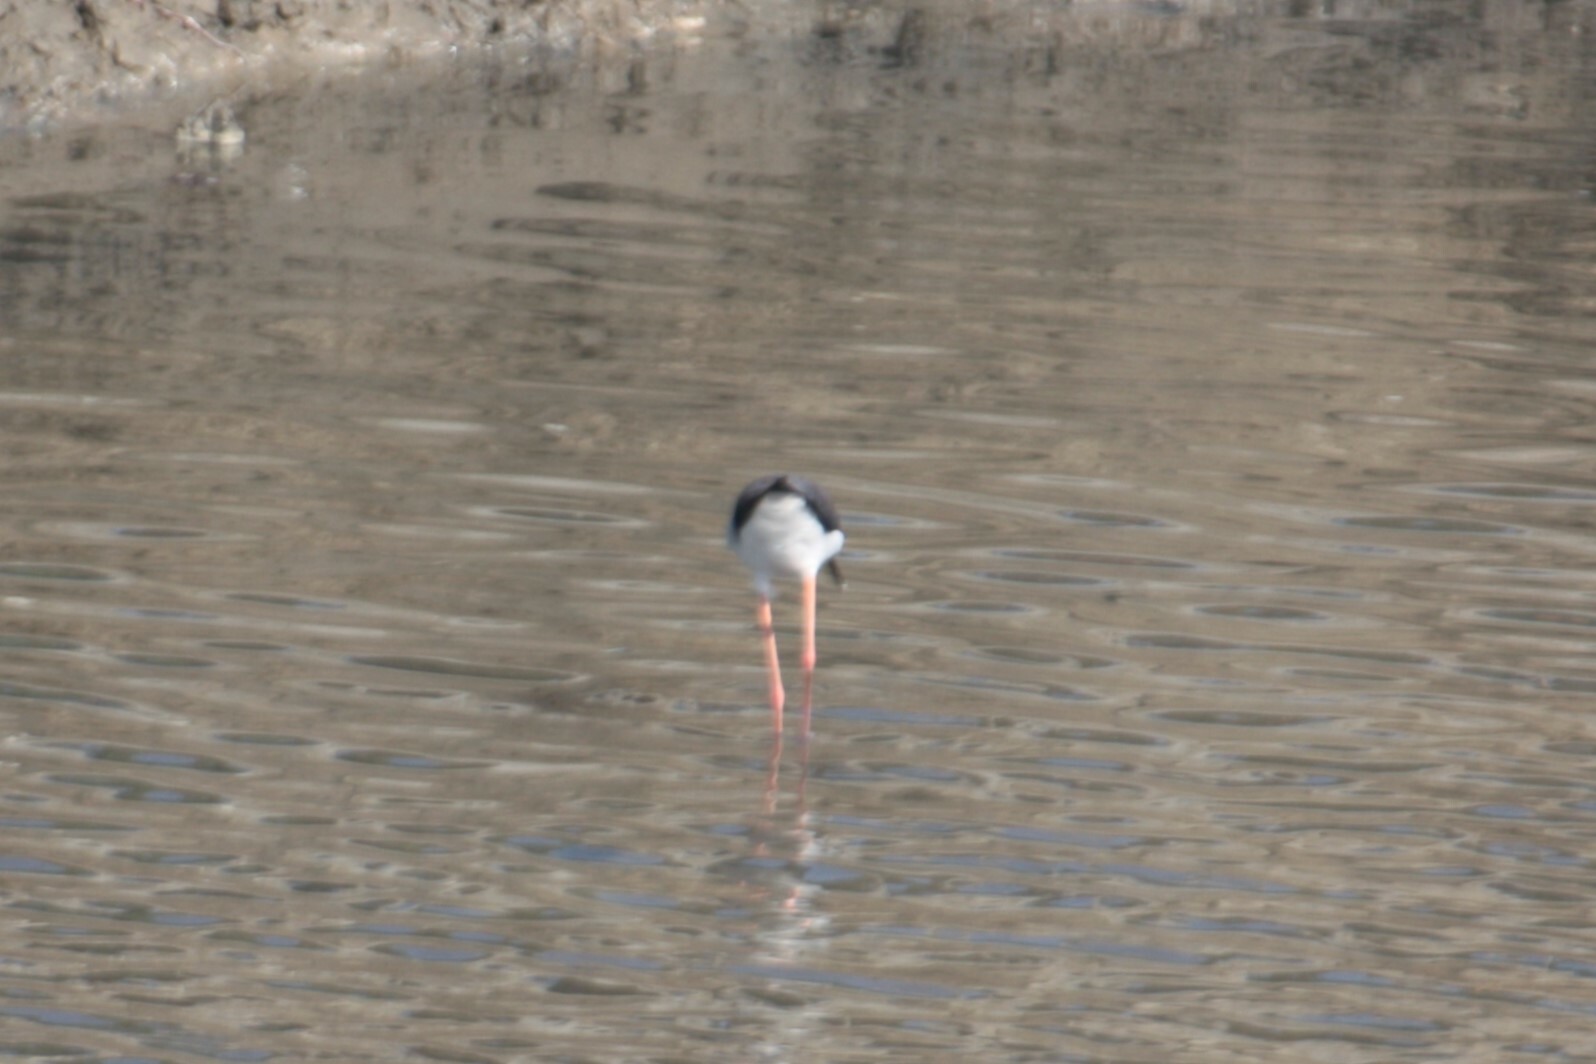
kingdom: Animalia
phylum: Chordata
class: Aves
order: Charadriiformes
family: Recurvirostridae
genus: Himantopus
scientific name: Himantopus himantopus
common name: Black-winged stilt
